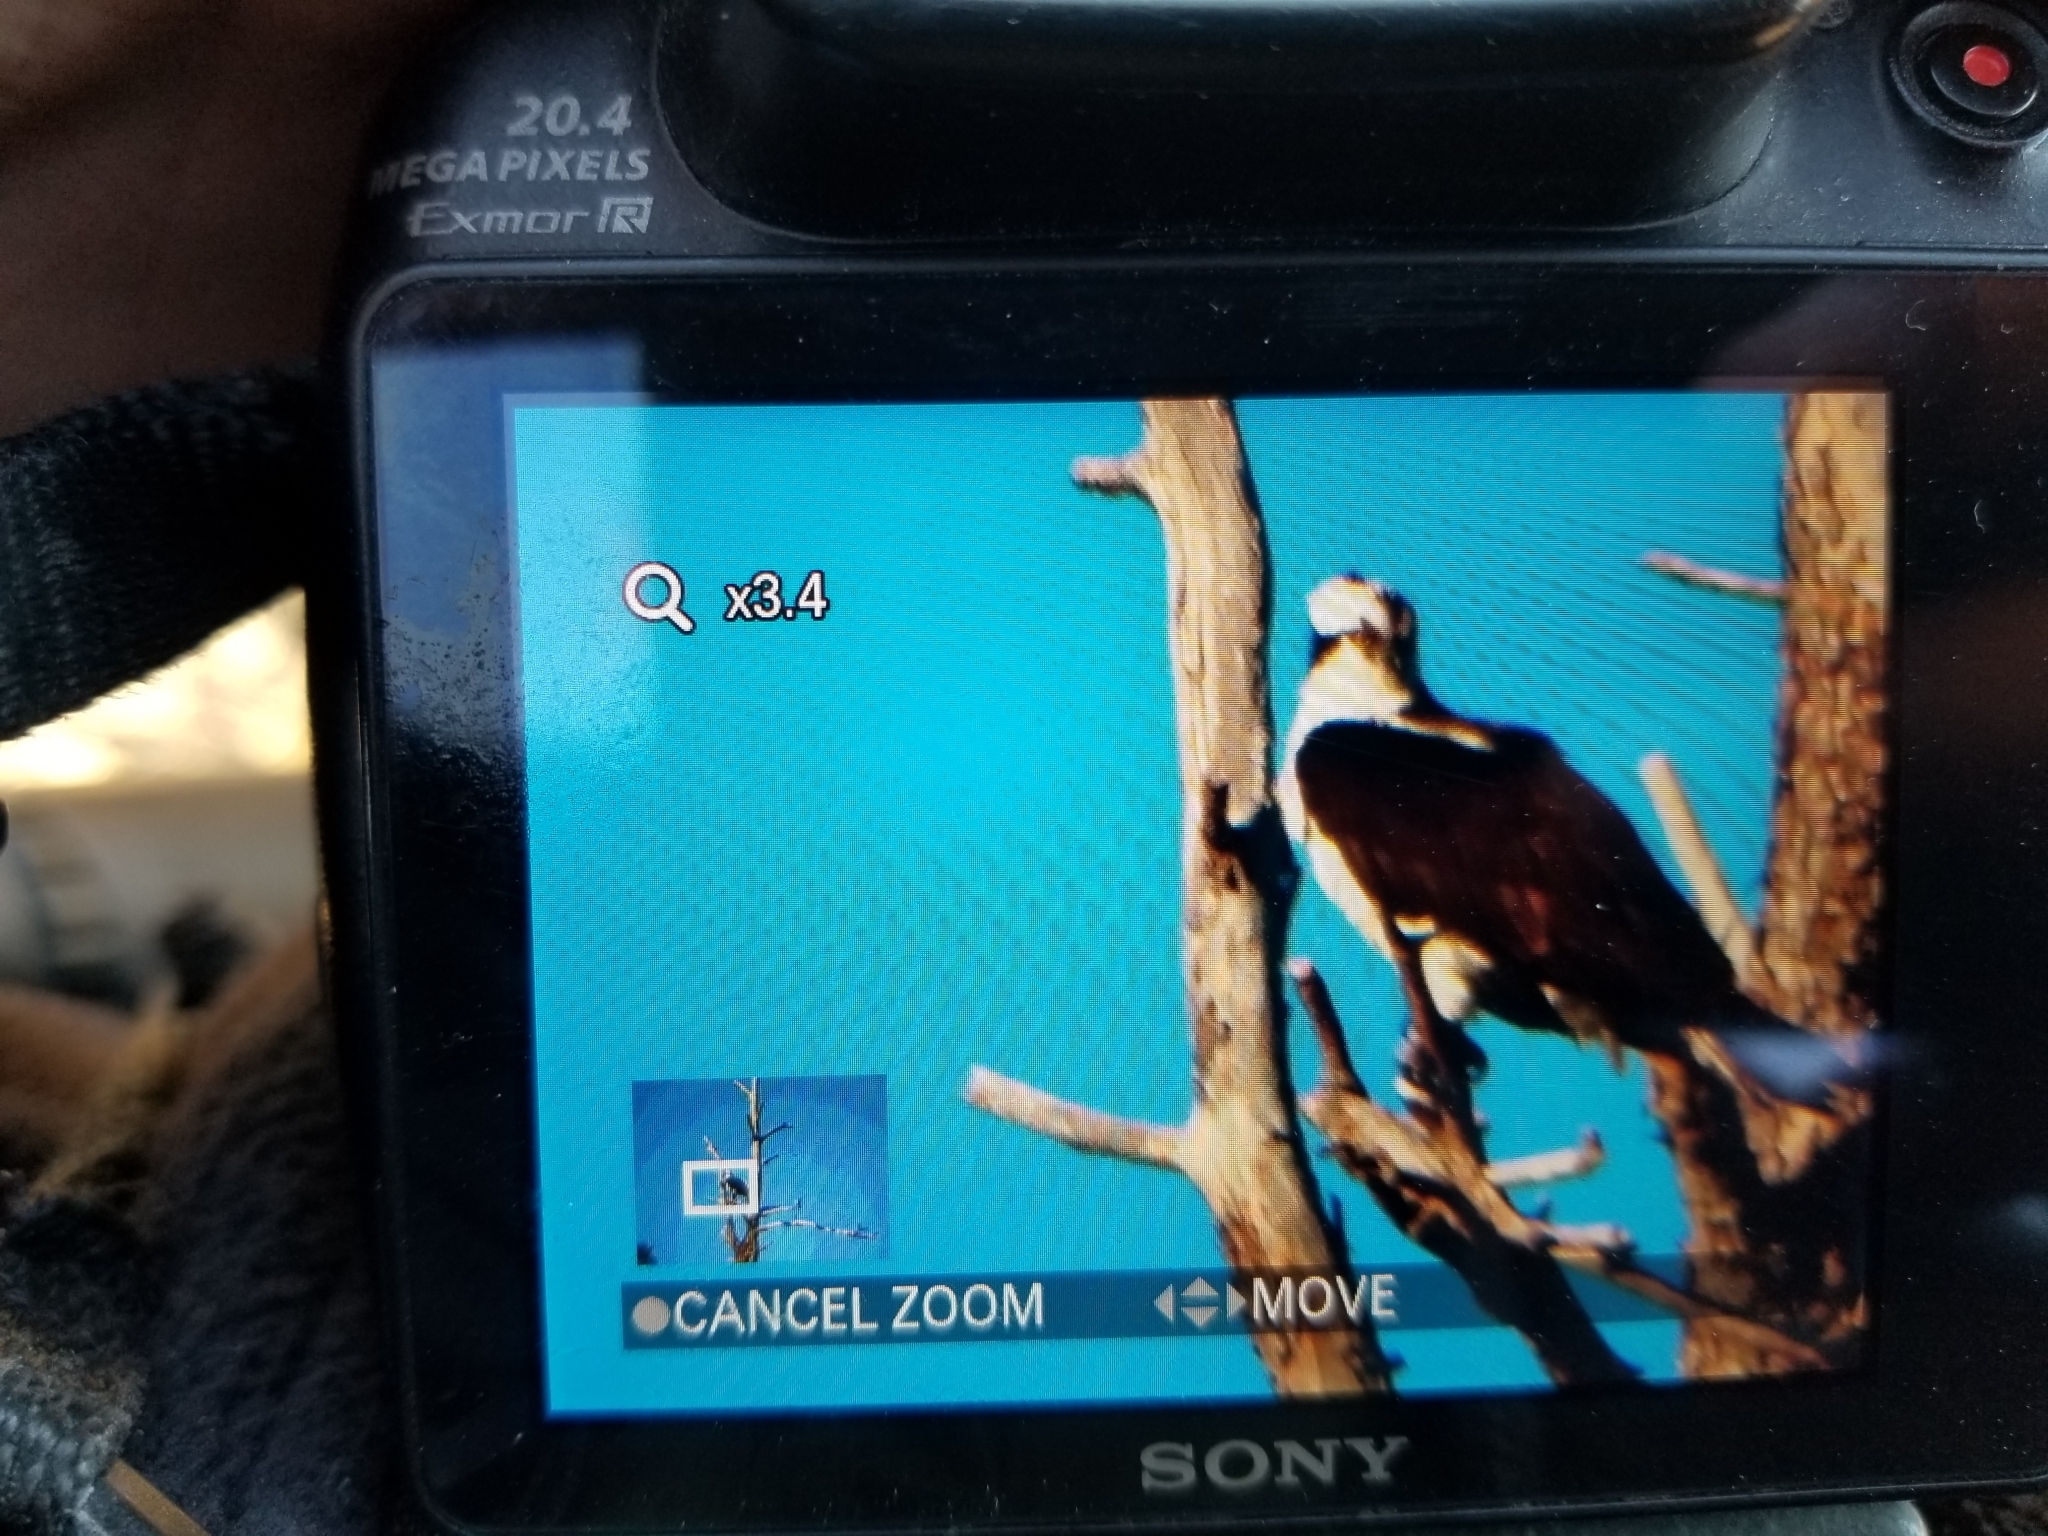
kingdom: Animalia
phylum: Chordata
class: Aves
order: Accipitriformes
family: Pandionidae
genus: Pandion
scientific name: Pandion haliaetus
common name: Osprey
